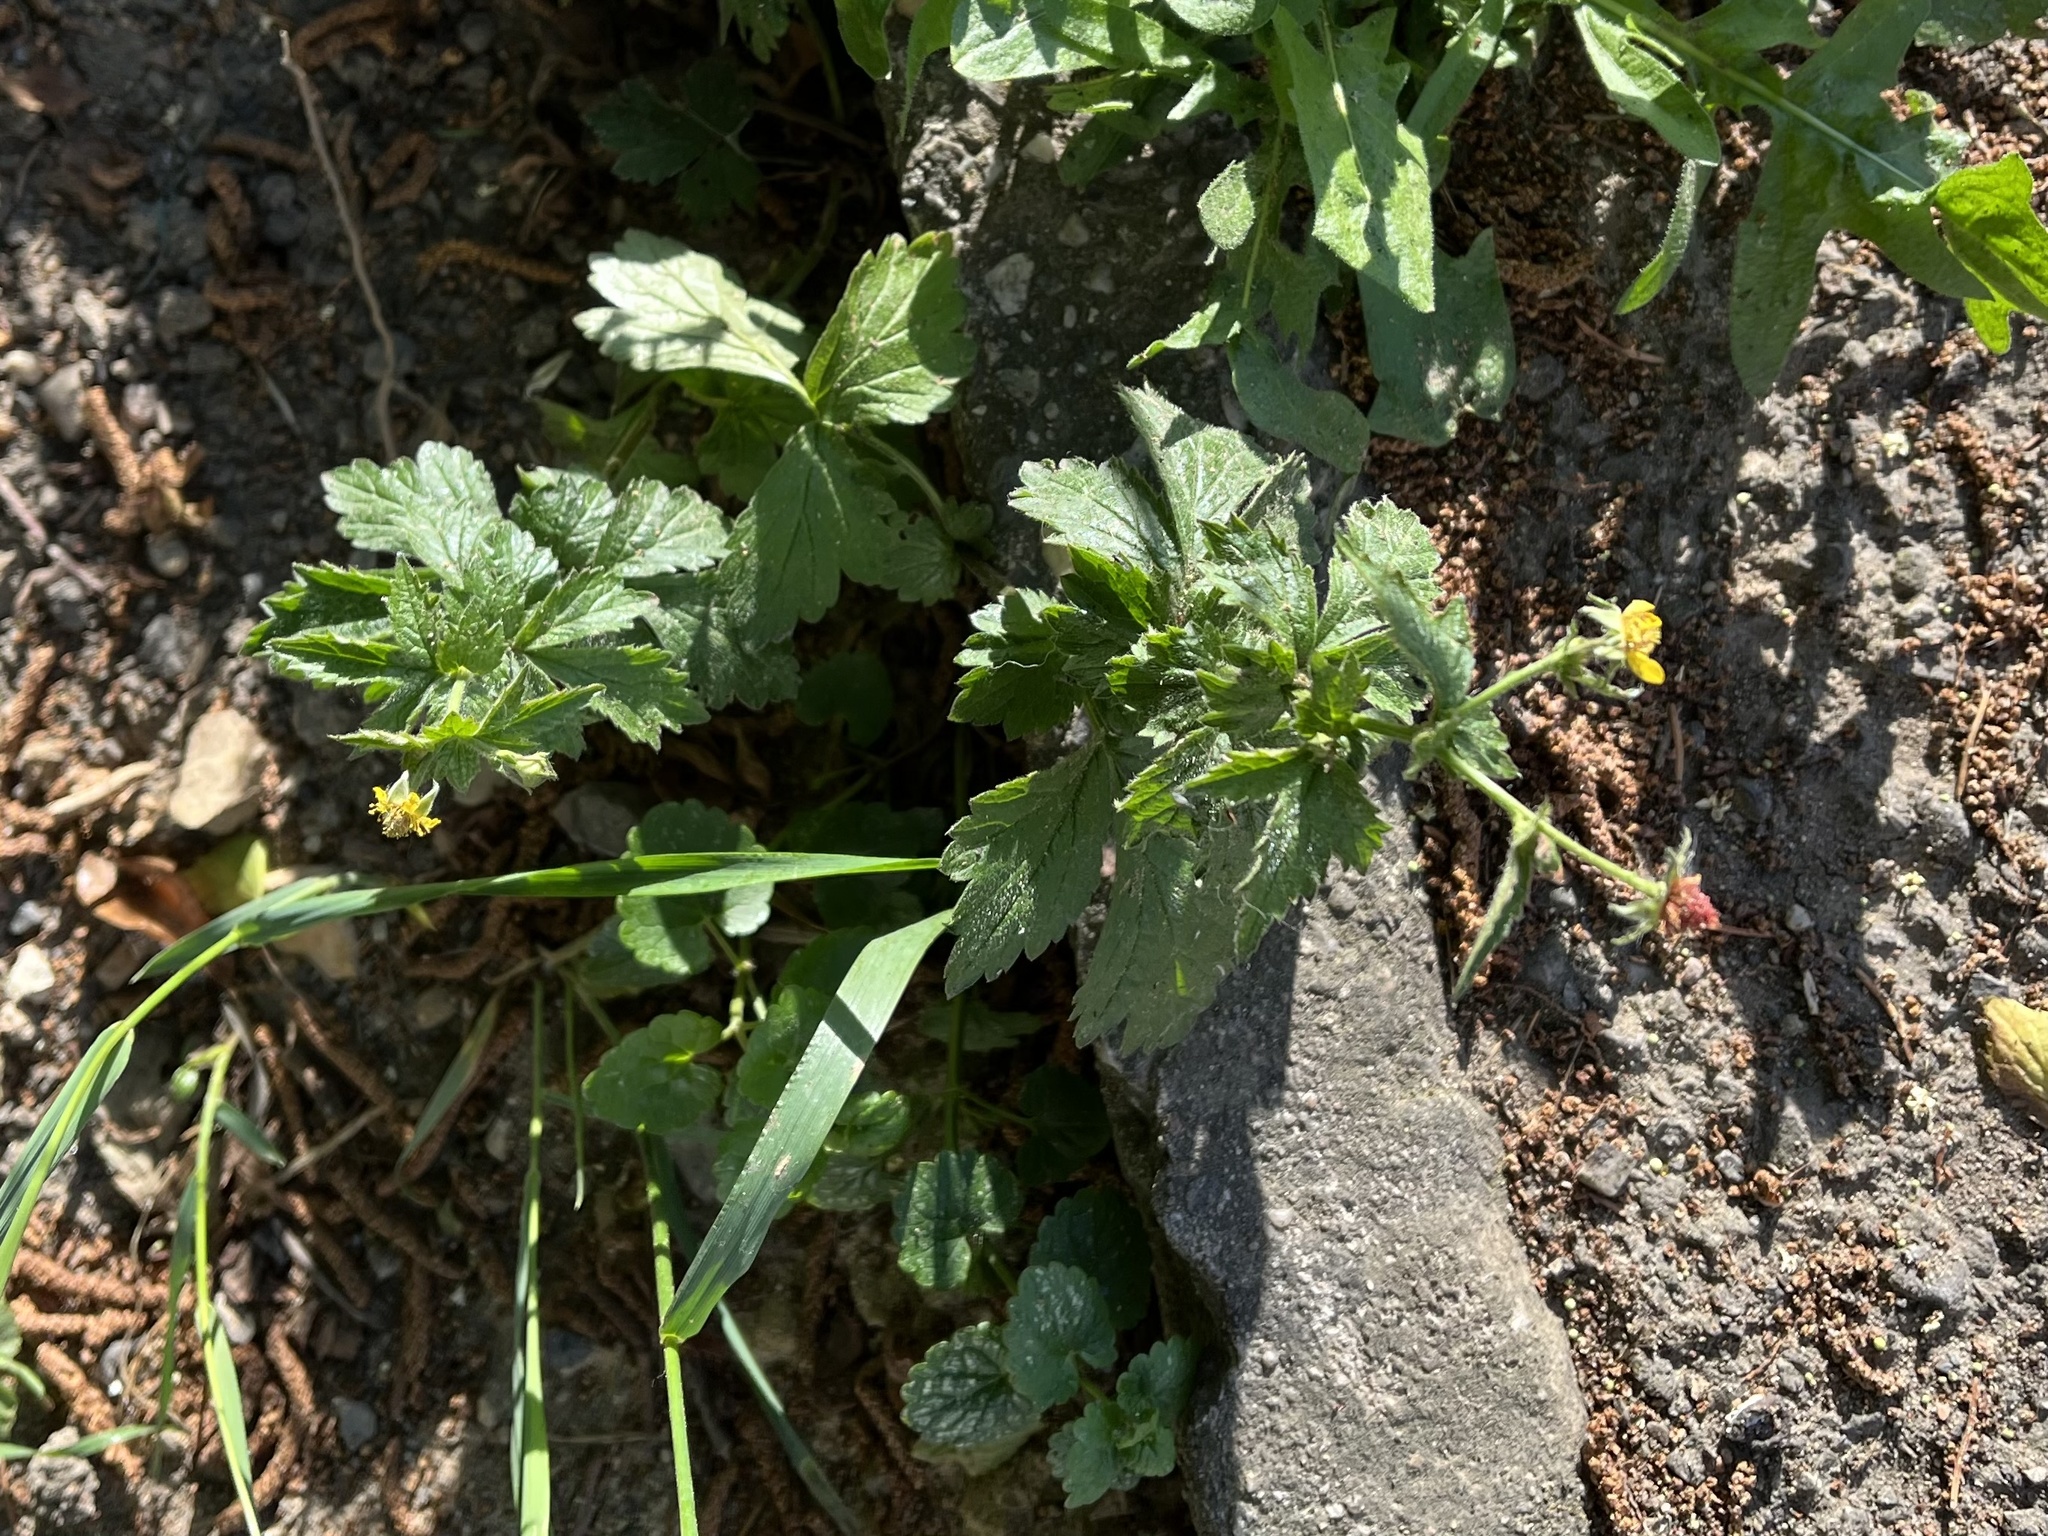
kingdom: Plantae
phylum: Tracheophyta
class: Magnoliopsida
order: Rosales
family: Rosaceae
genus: Geum
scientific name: Geum urbanum
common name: Wood avens
